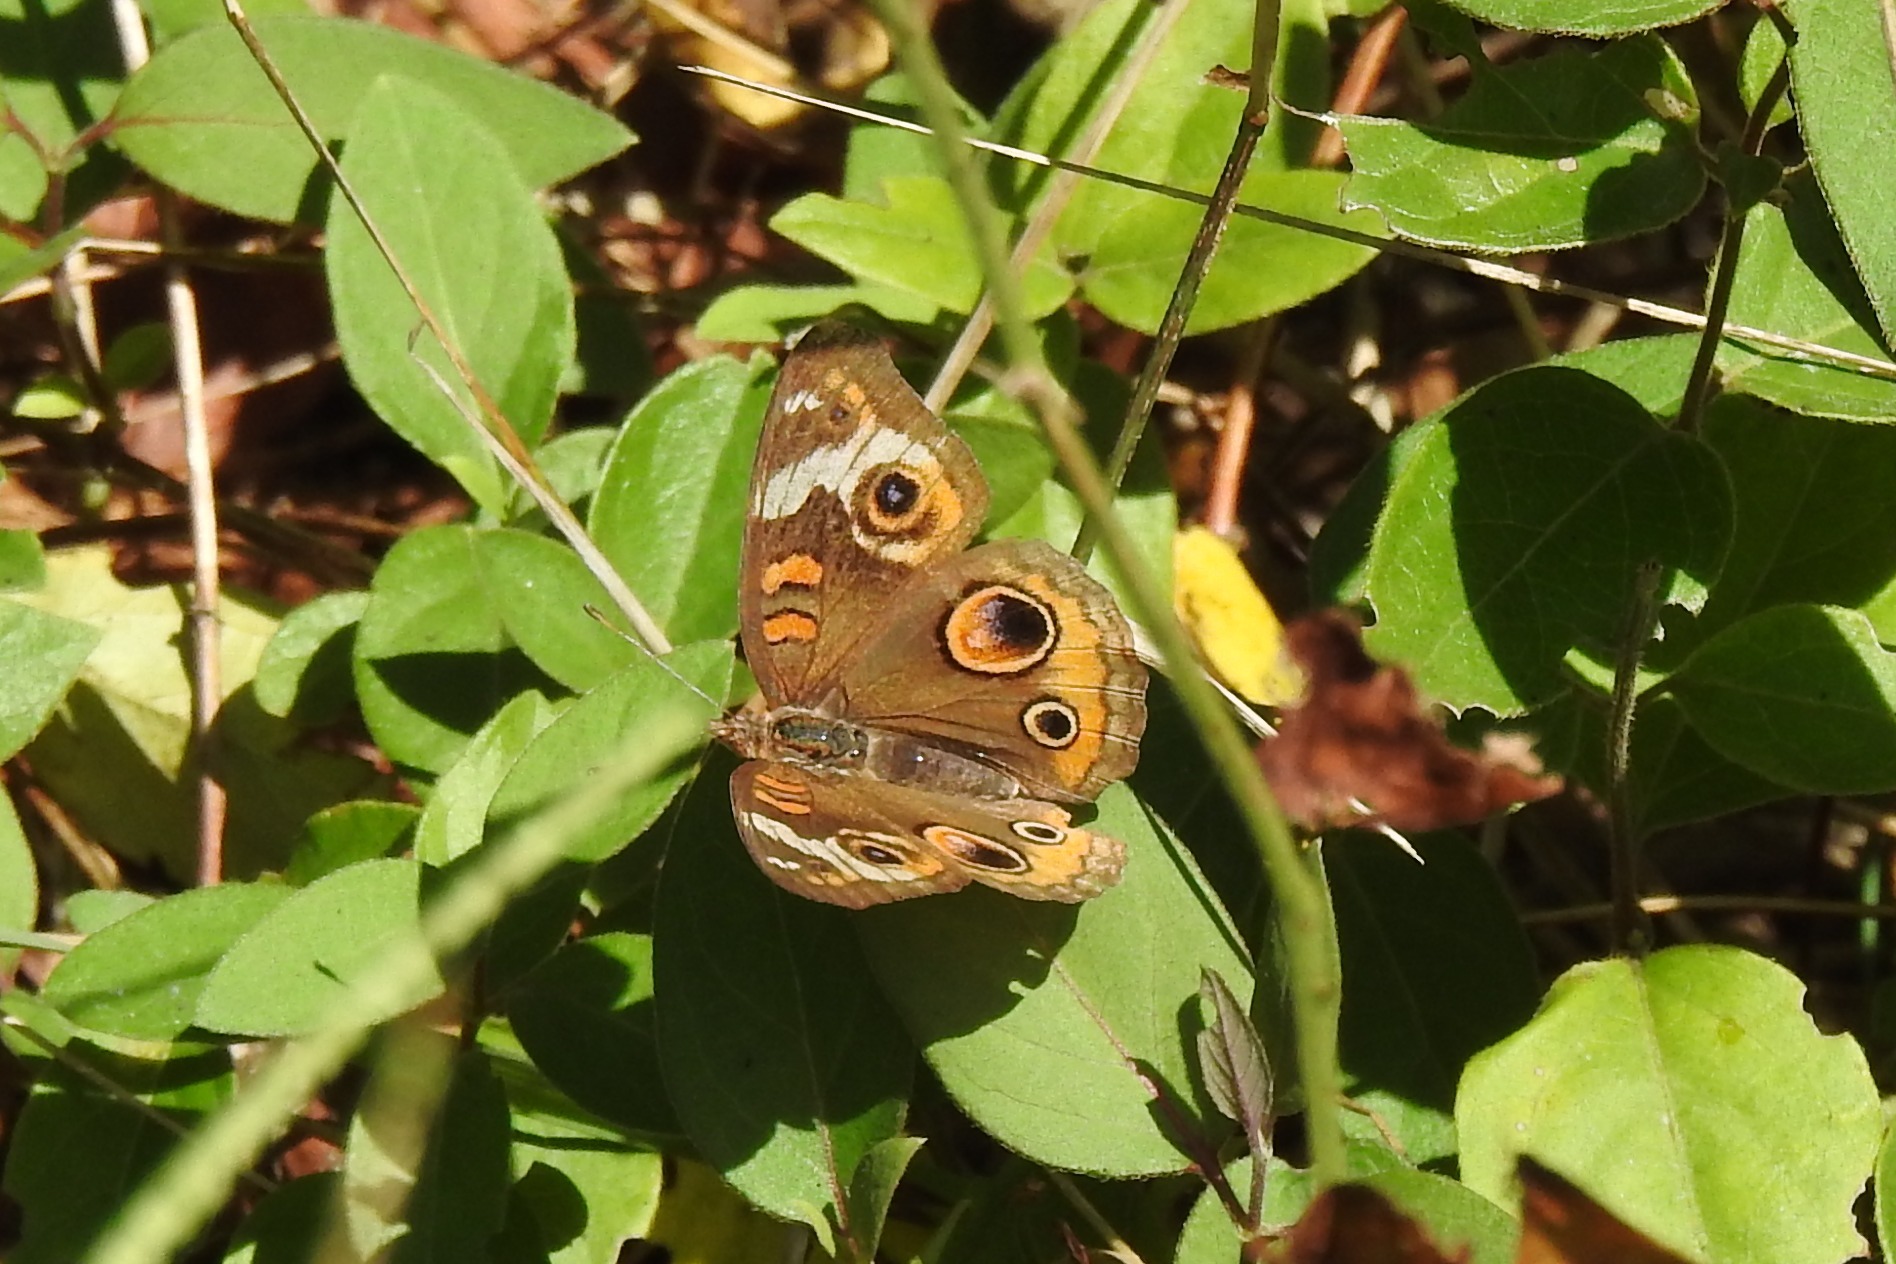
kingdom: Animalia
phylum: Arthropoda
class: Insecta
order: Lepidoptera
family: Nymphalidae
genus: Junonia
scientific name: Junonia coenia
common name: Common buckeye
